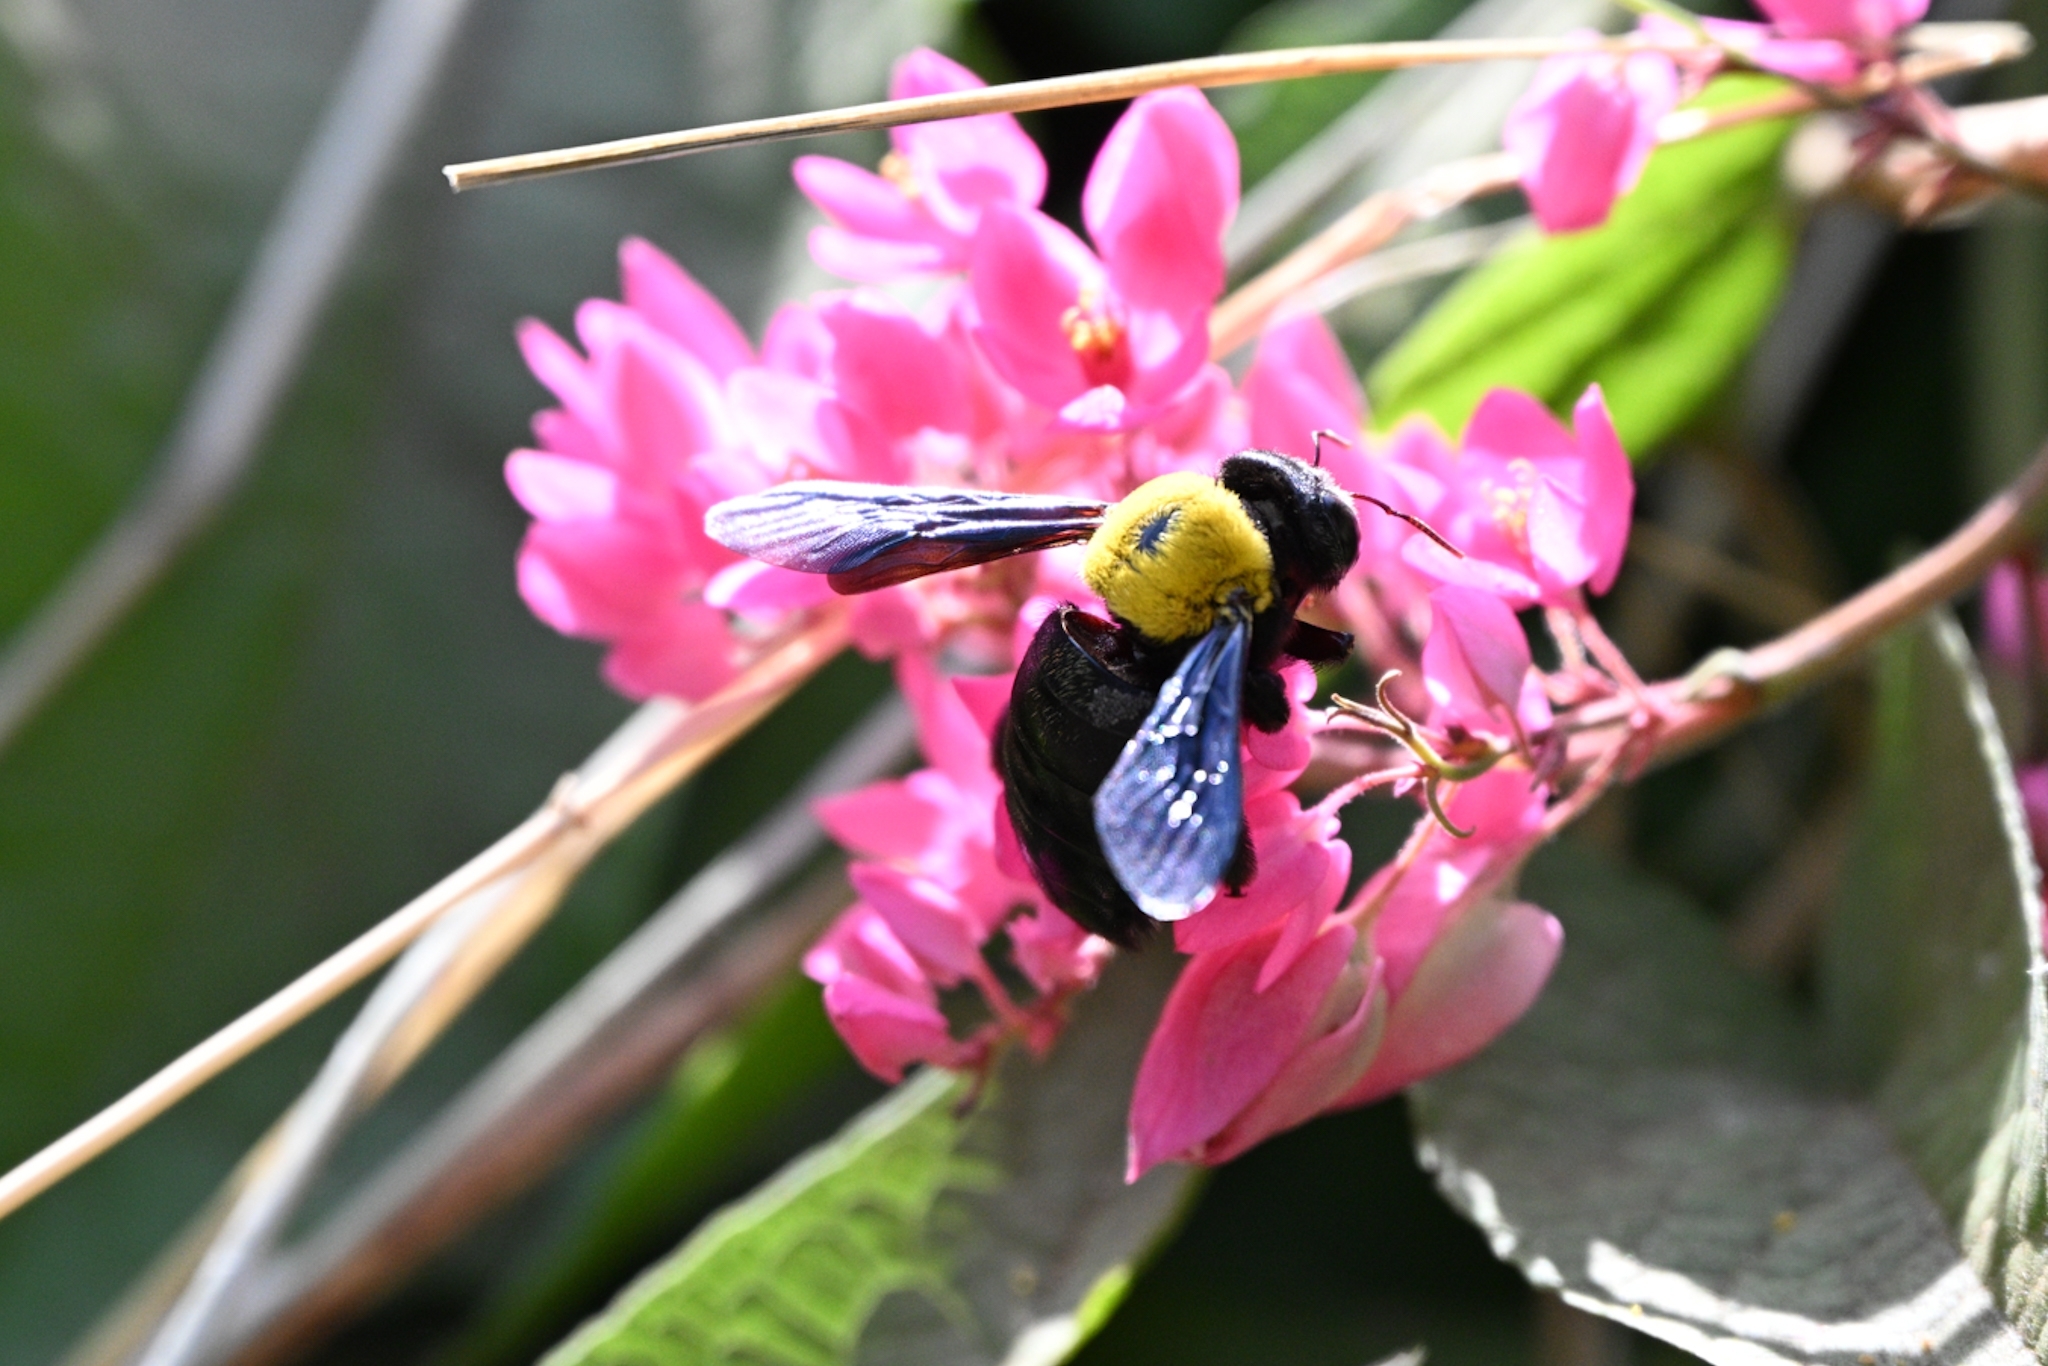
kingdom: Animalia
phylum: Arthropoda
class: Insecta
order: Hymenoptera
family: Apidae
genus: Xylocopa
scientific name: Xylocopa pubescens
